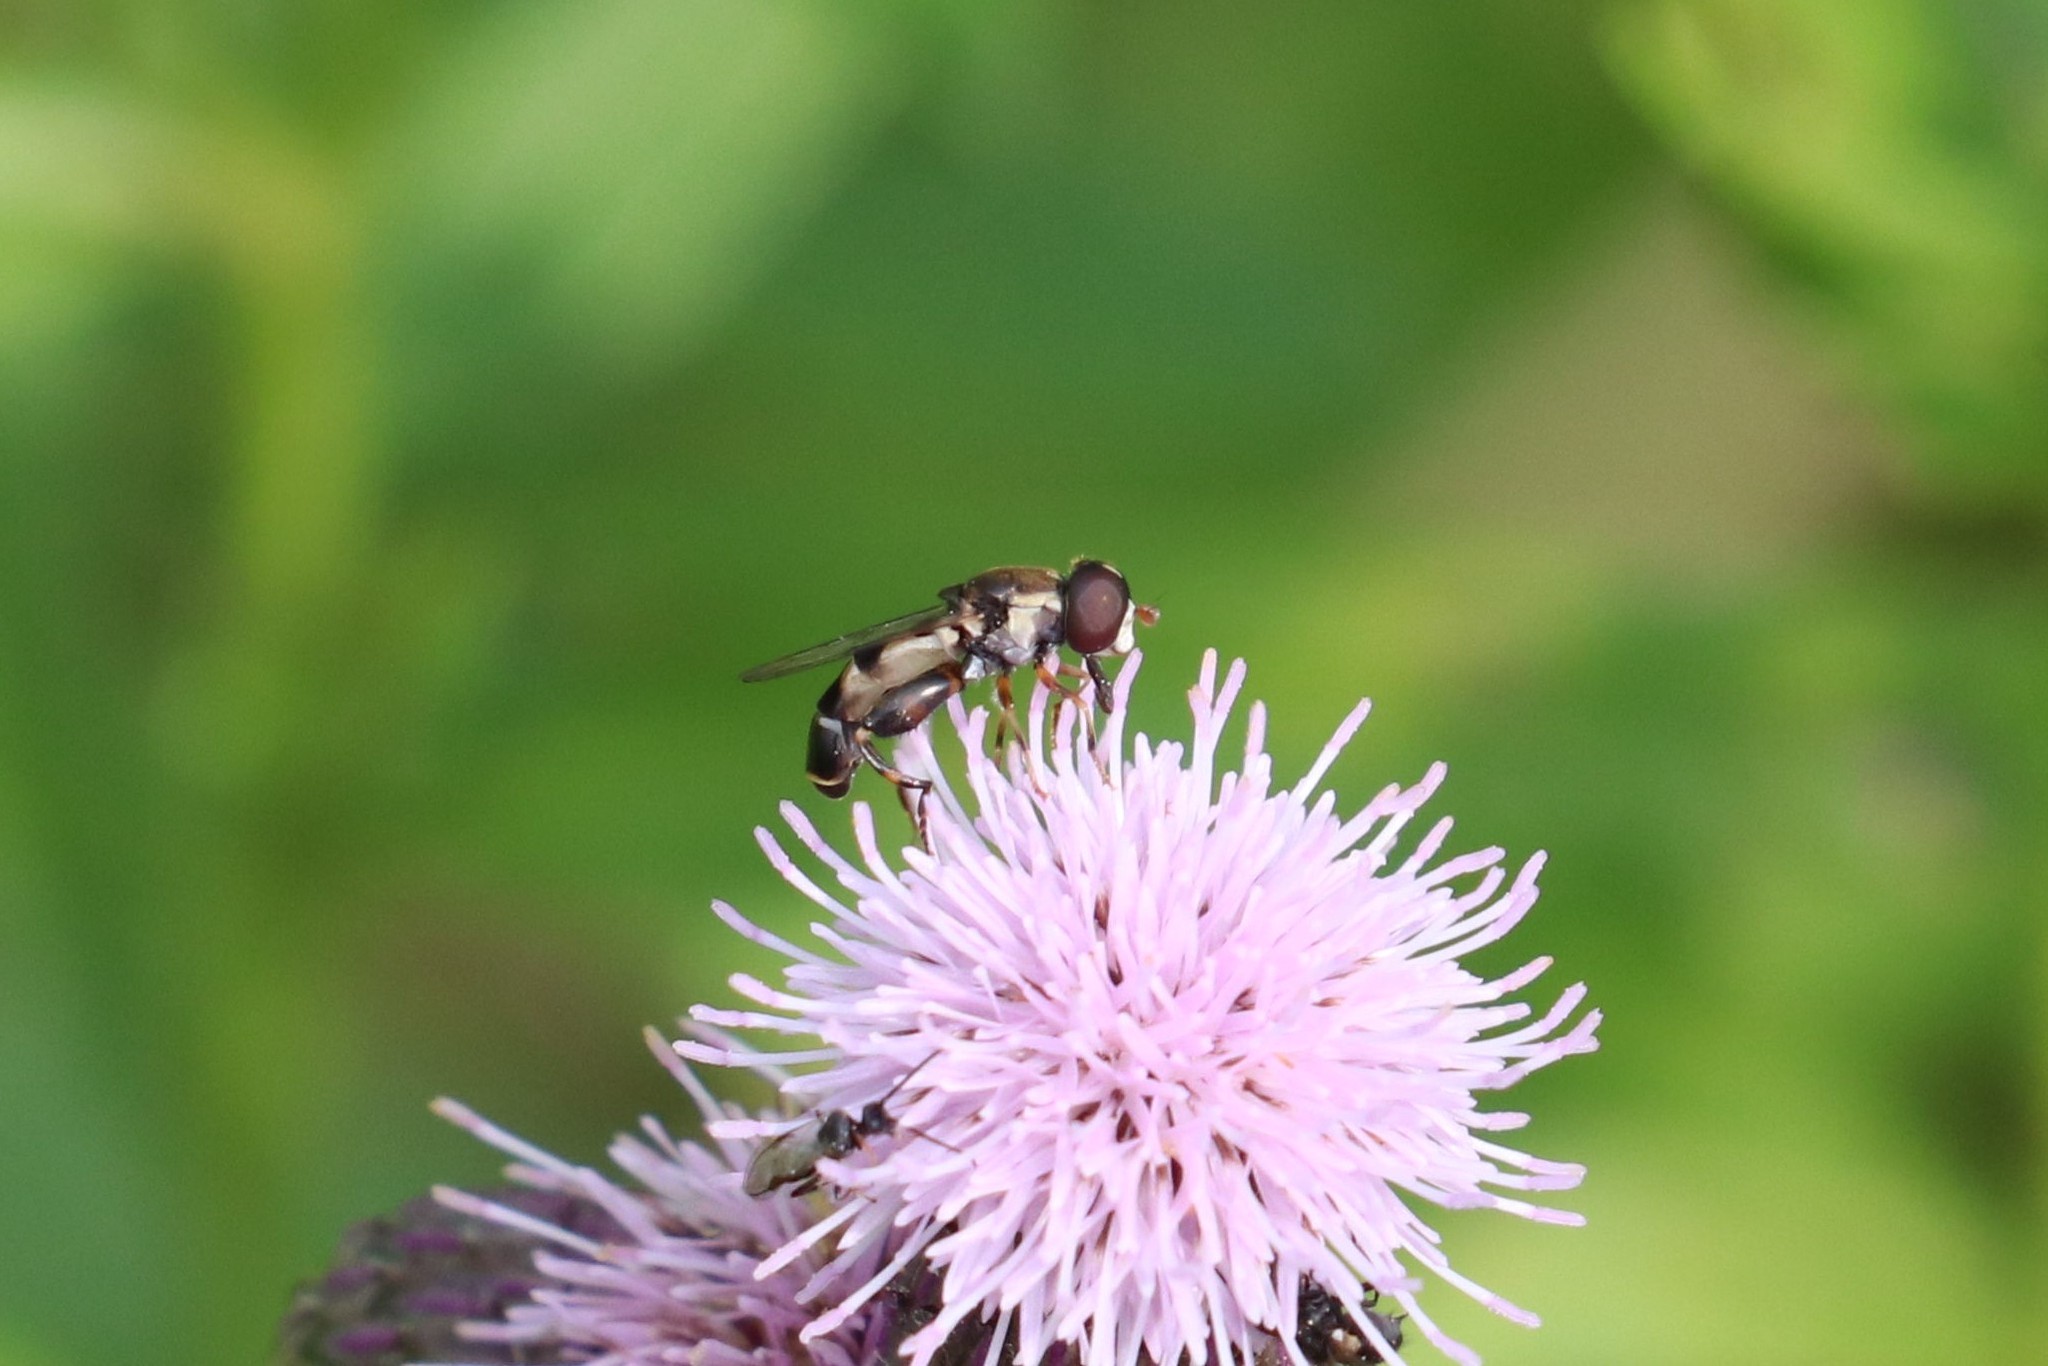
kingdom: Animalia
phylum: Arthropoda
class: Insecta
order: Diptera
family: Syrphidae
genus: Syritta
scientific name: Syritta pipiens
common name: Hover fly
